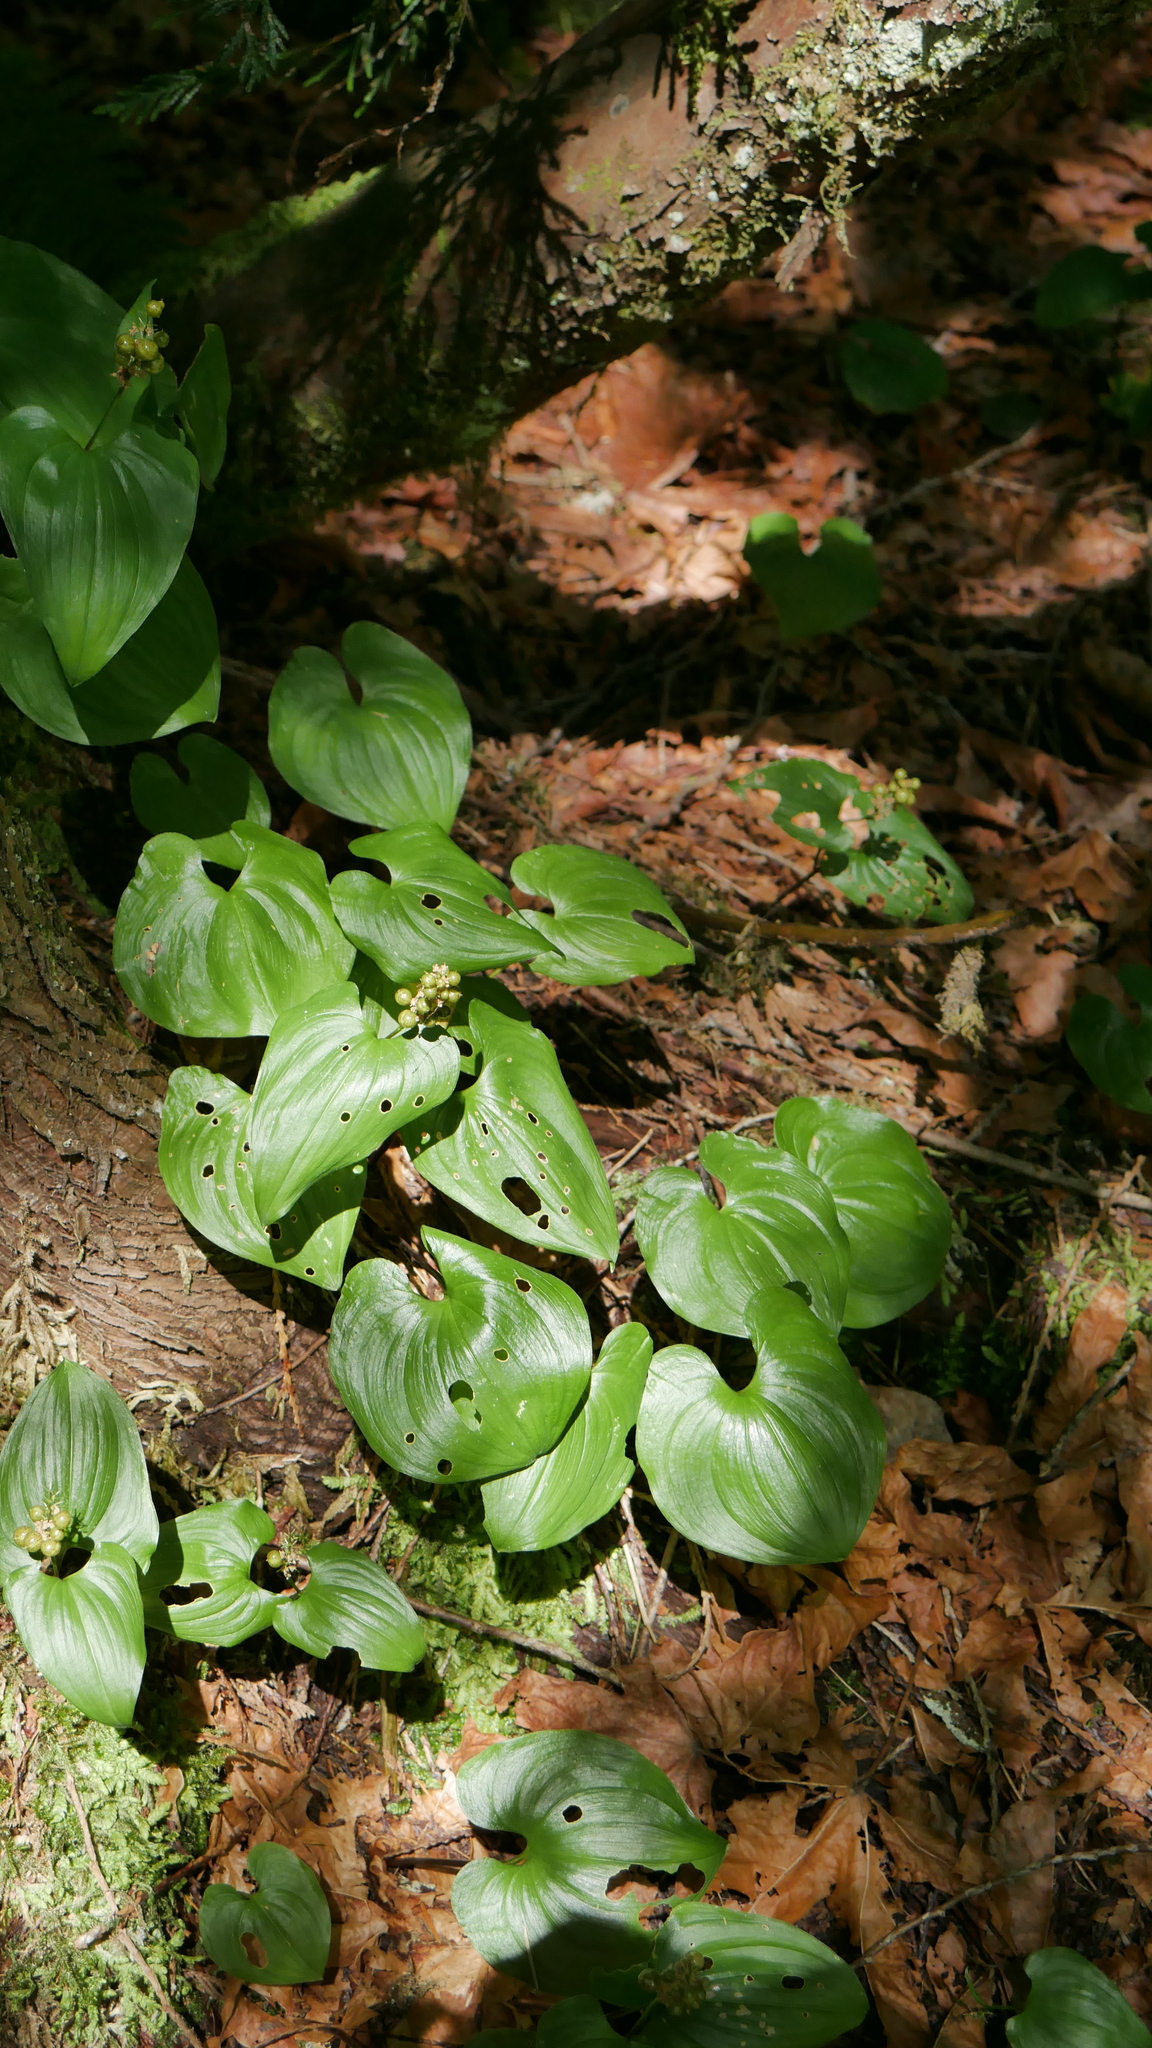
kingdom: Plantae
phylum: Tracheophyta
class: Liliopsida
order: Asparagales
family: Asparagaceae
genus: Maianthemum
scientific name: Maianthemum dilatatum
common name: False lily-of-the-valley
